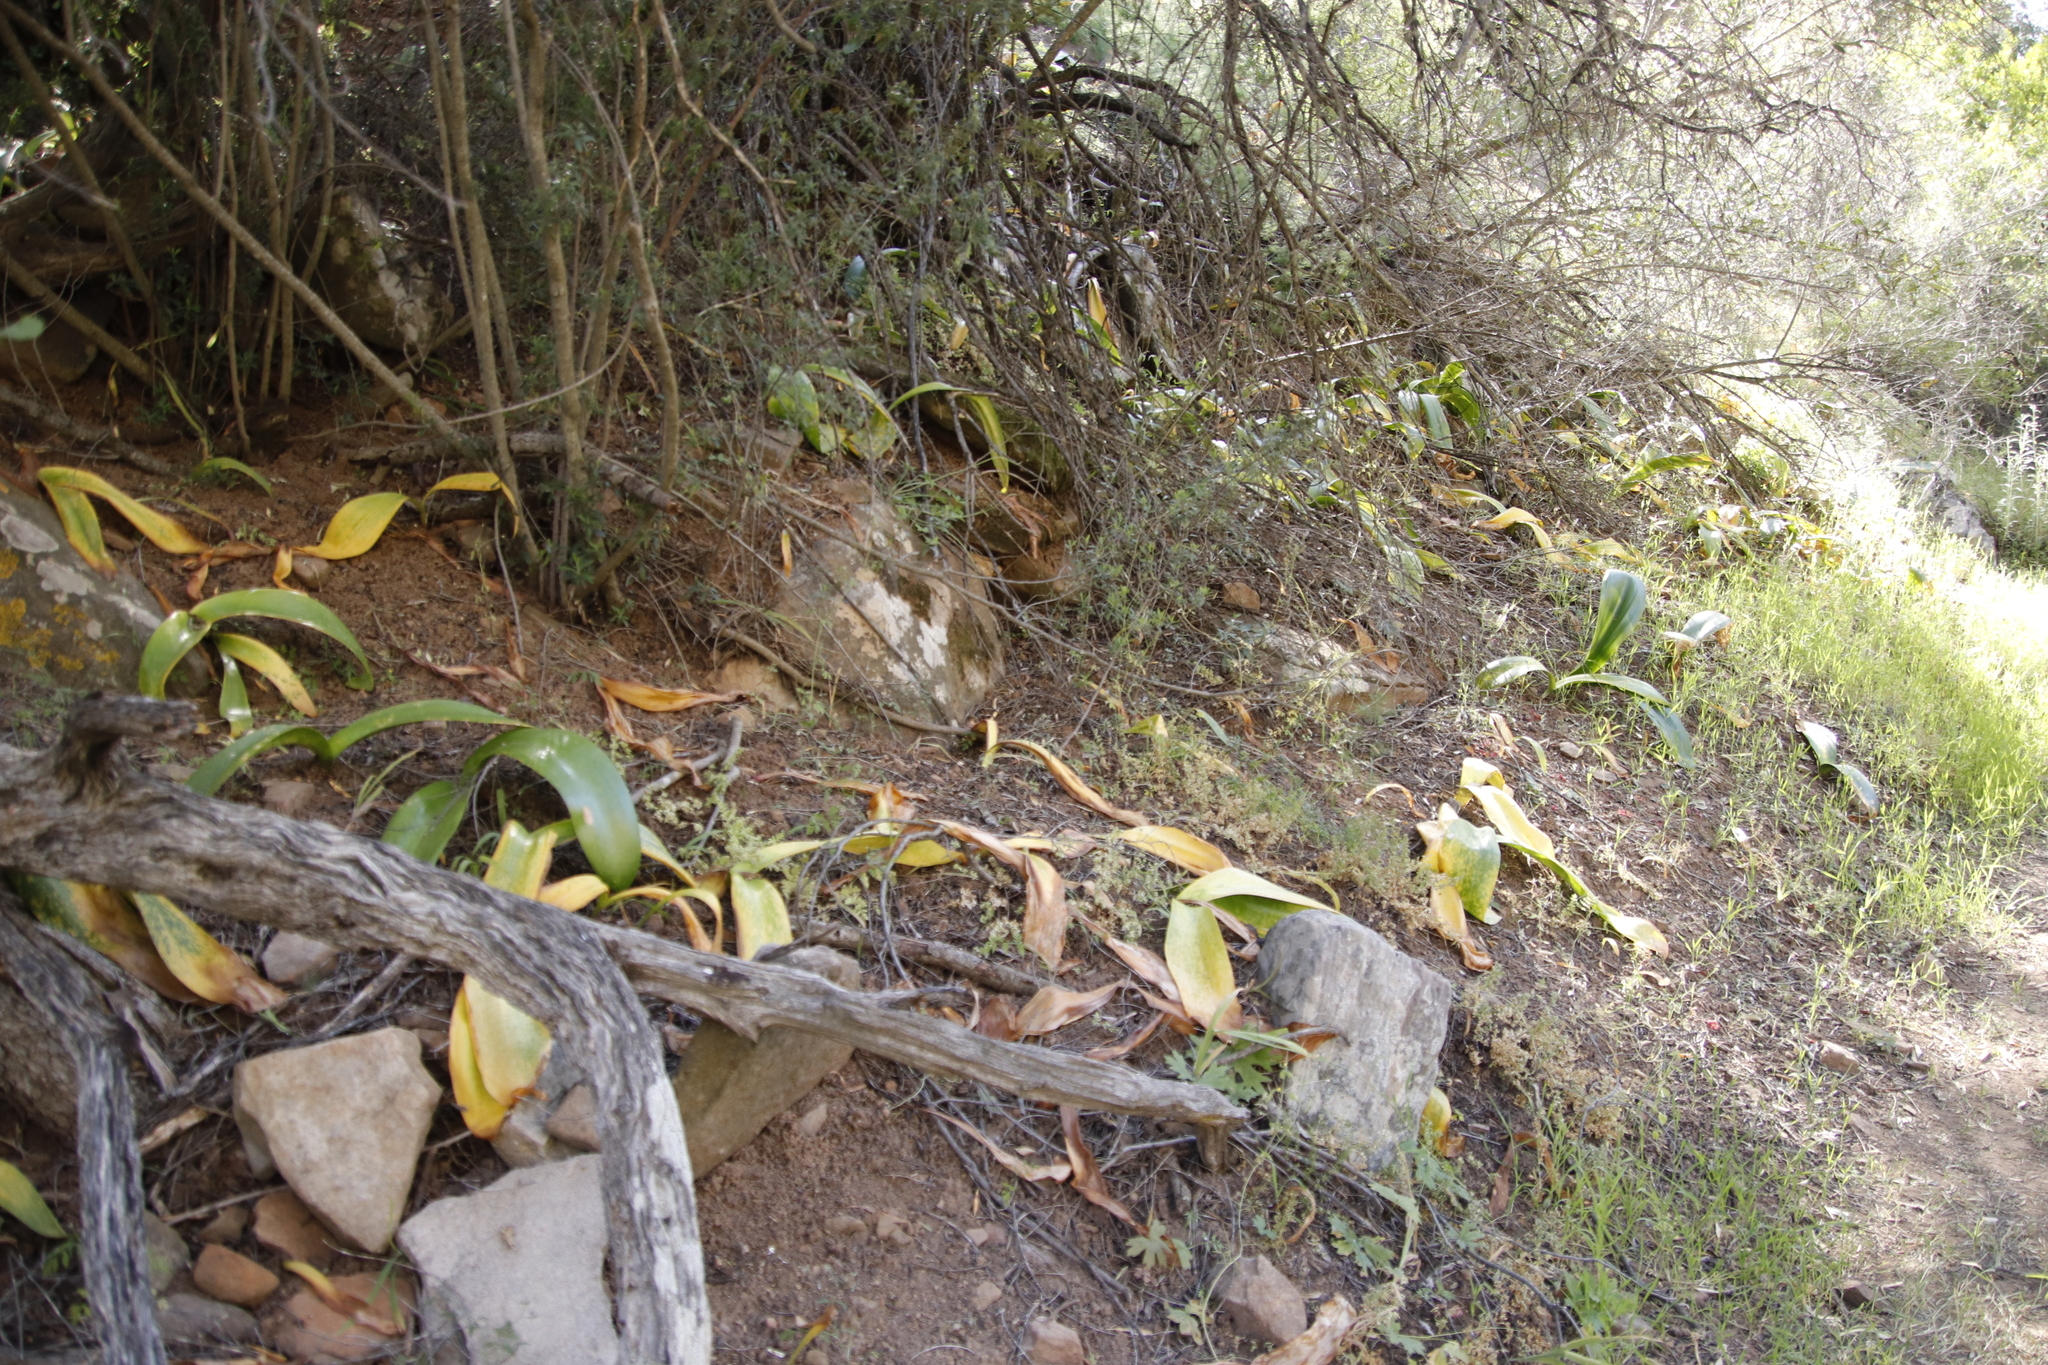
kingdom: Plantae
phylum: Tracheophyta
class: Liliopsida
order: Asparagales
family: Amaryllidaceae
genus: Haemanthus
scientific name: Haemanthus coccineus
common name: Cape-tulip
